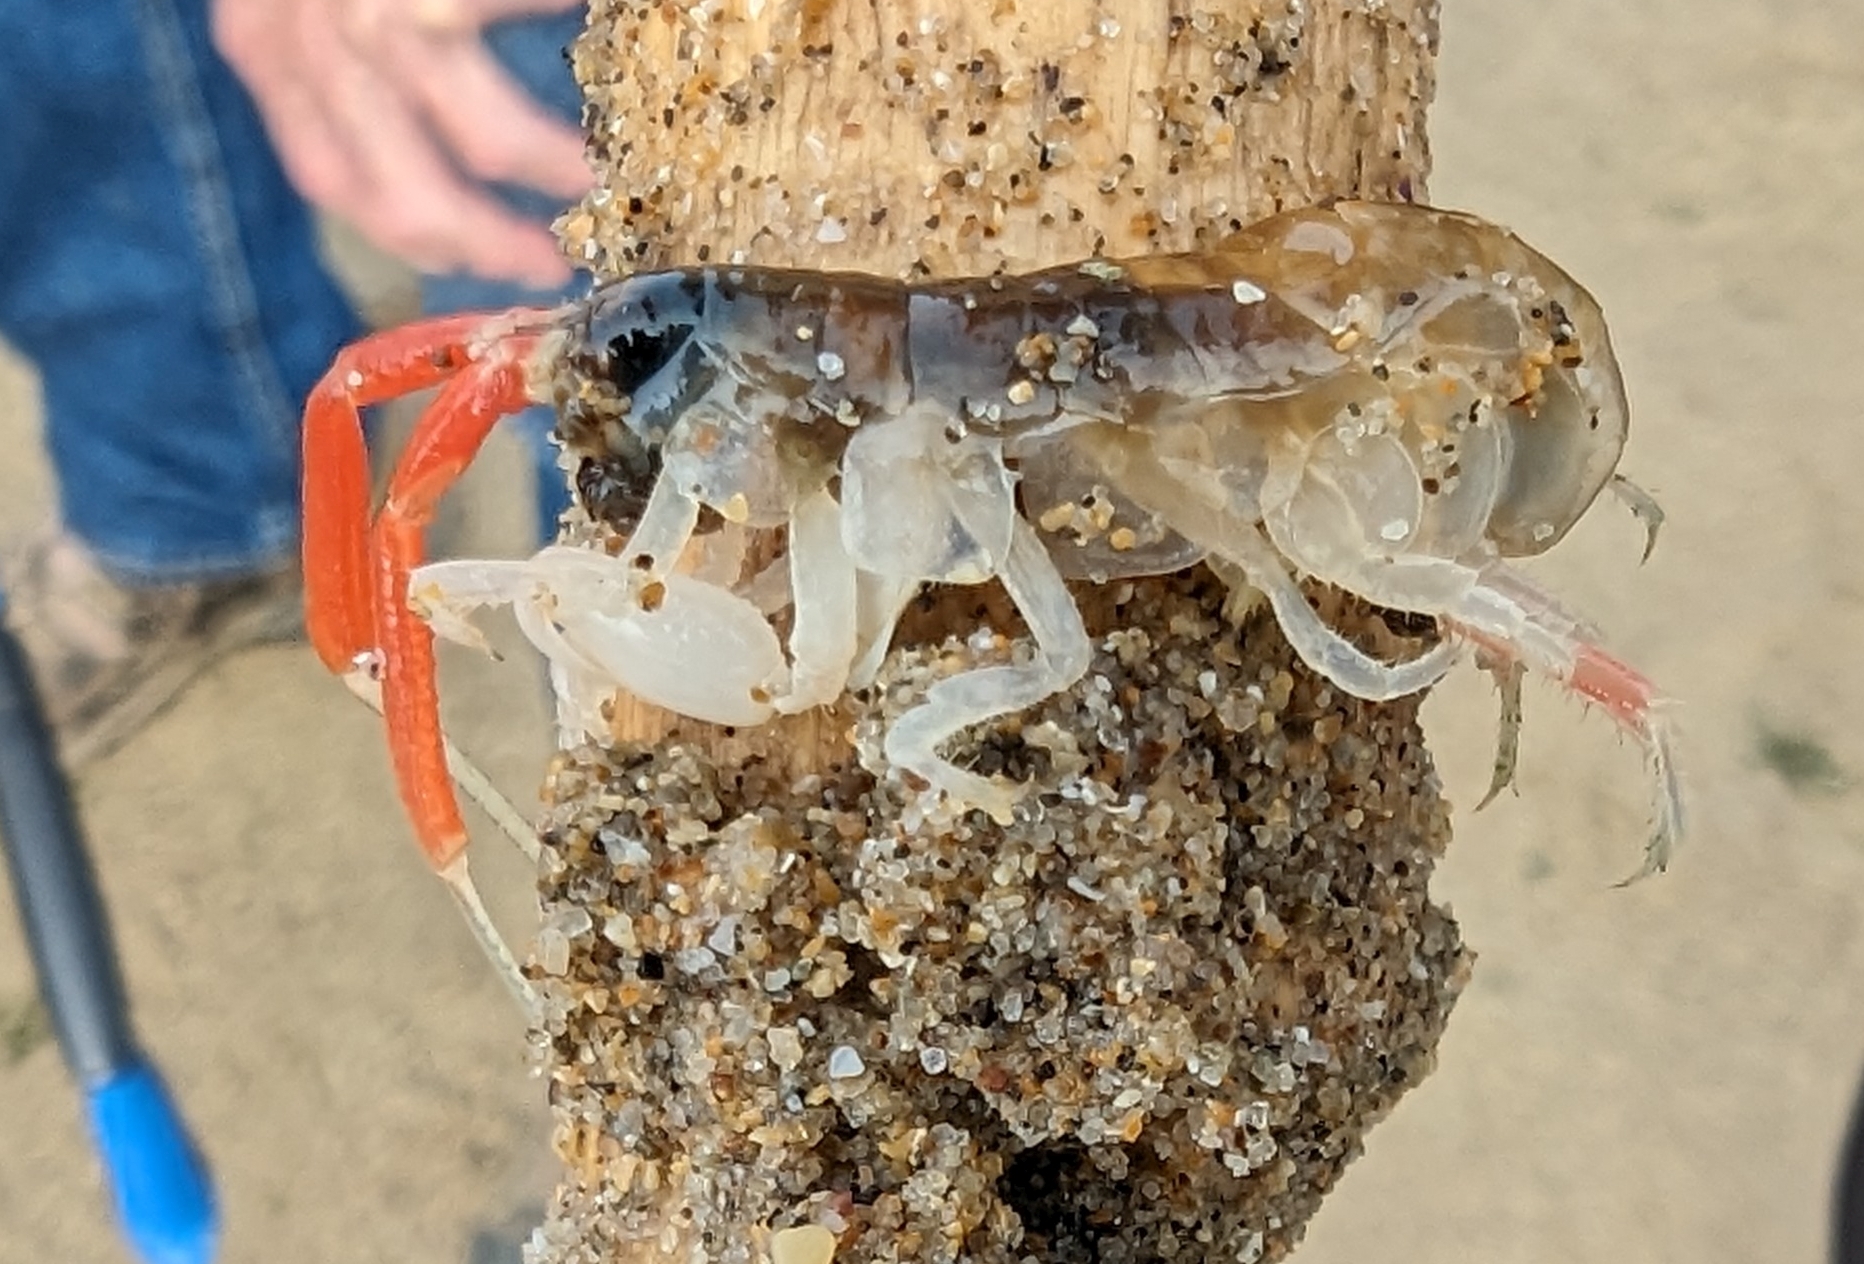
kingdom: Animalia
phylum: Arthropoda
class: Malacostraca
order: Amphipoda
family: Talitridae
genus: Megalorchestia
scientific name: Megalorchestia californiana
